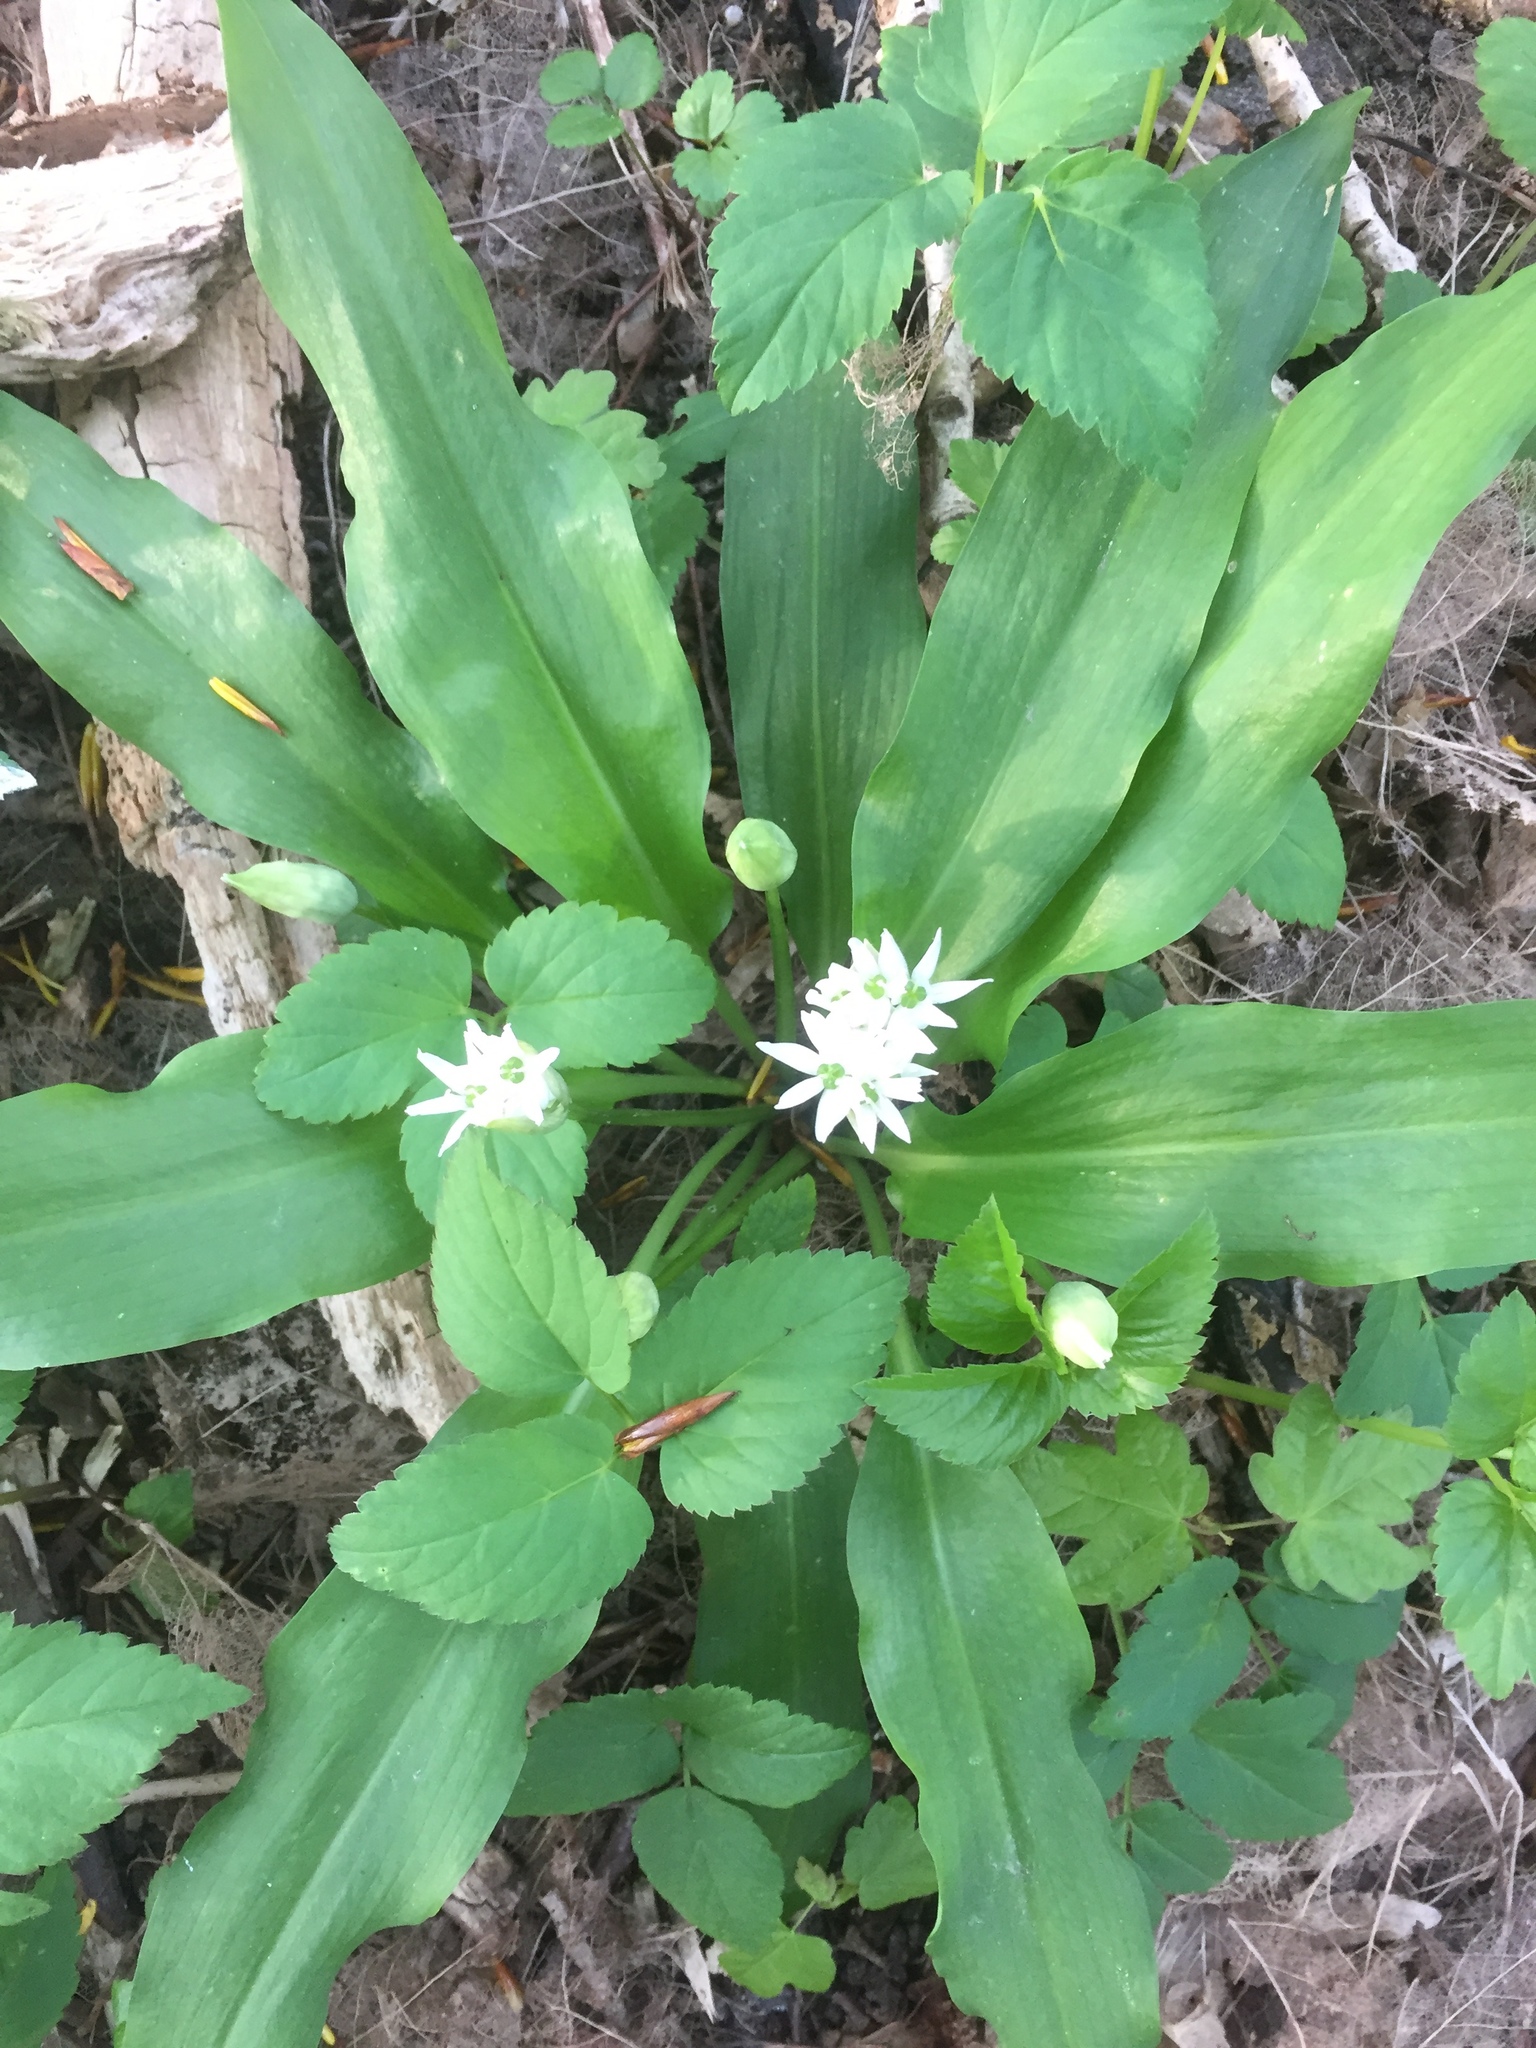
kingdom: Plantae
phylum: Tracheophyta
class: Liliopsida
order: Asparagales
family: Amaryllidaceae
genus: Allium
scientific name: Allium ursinum
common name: Ramsons
